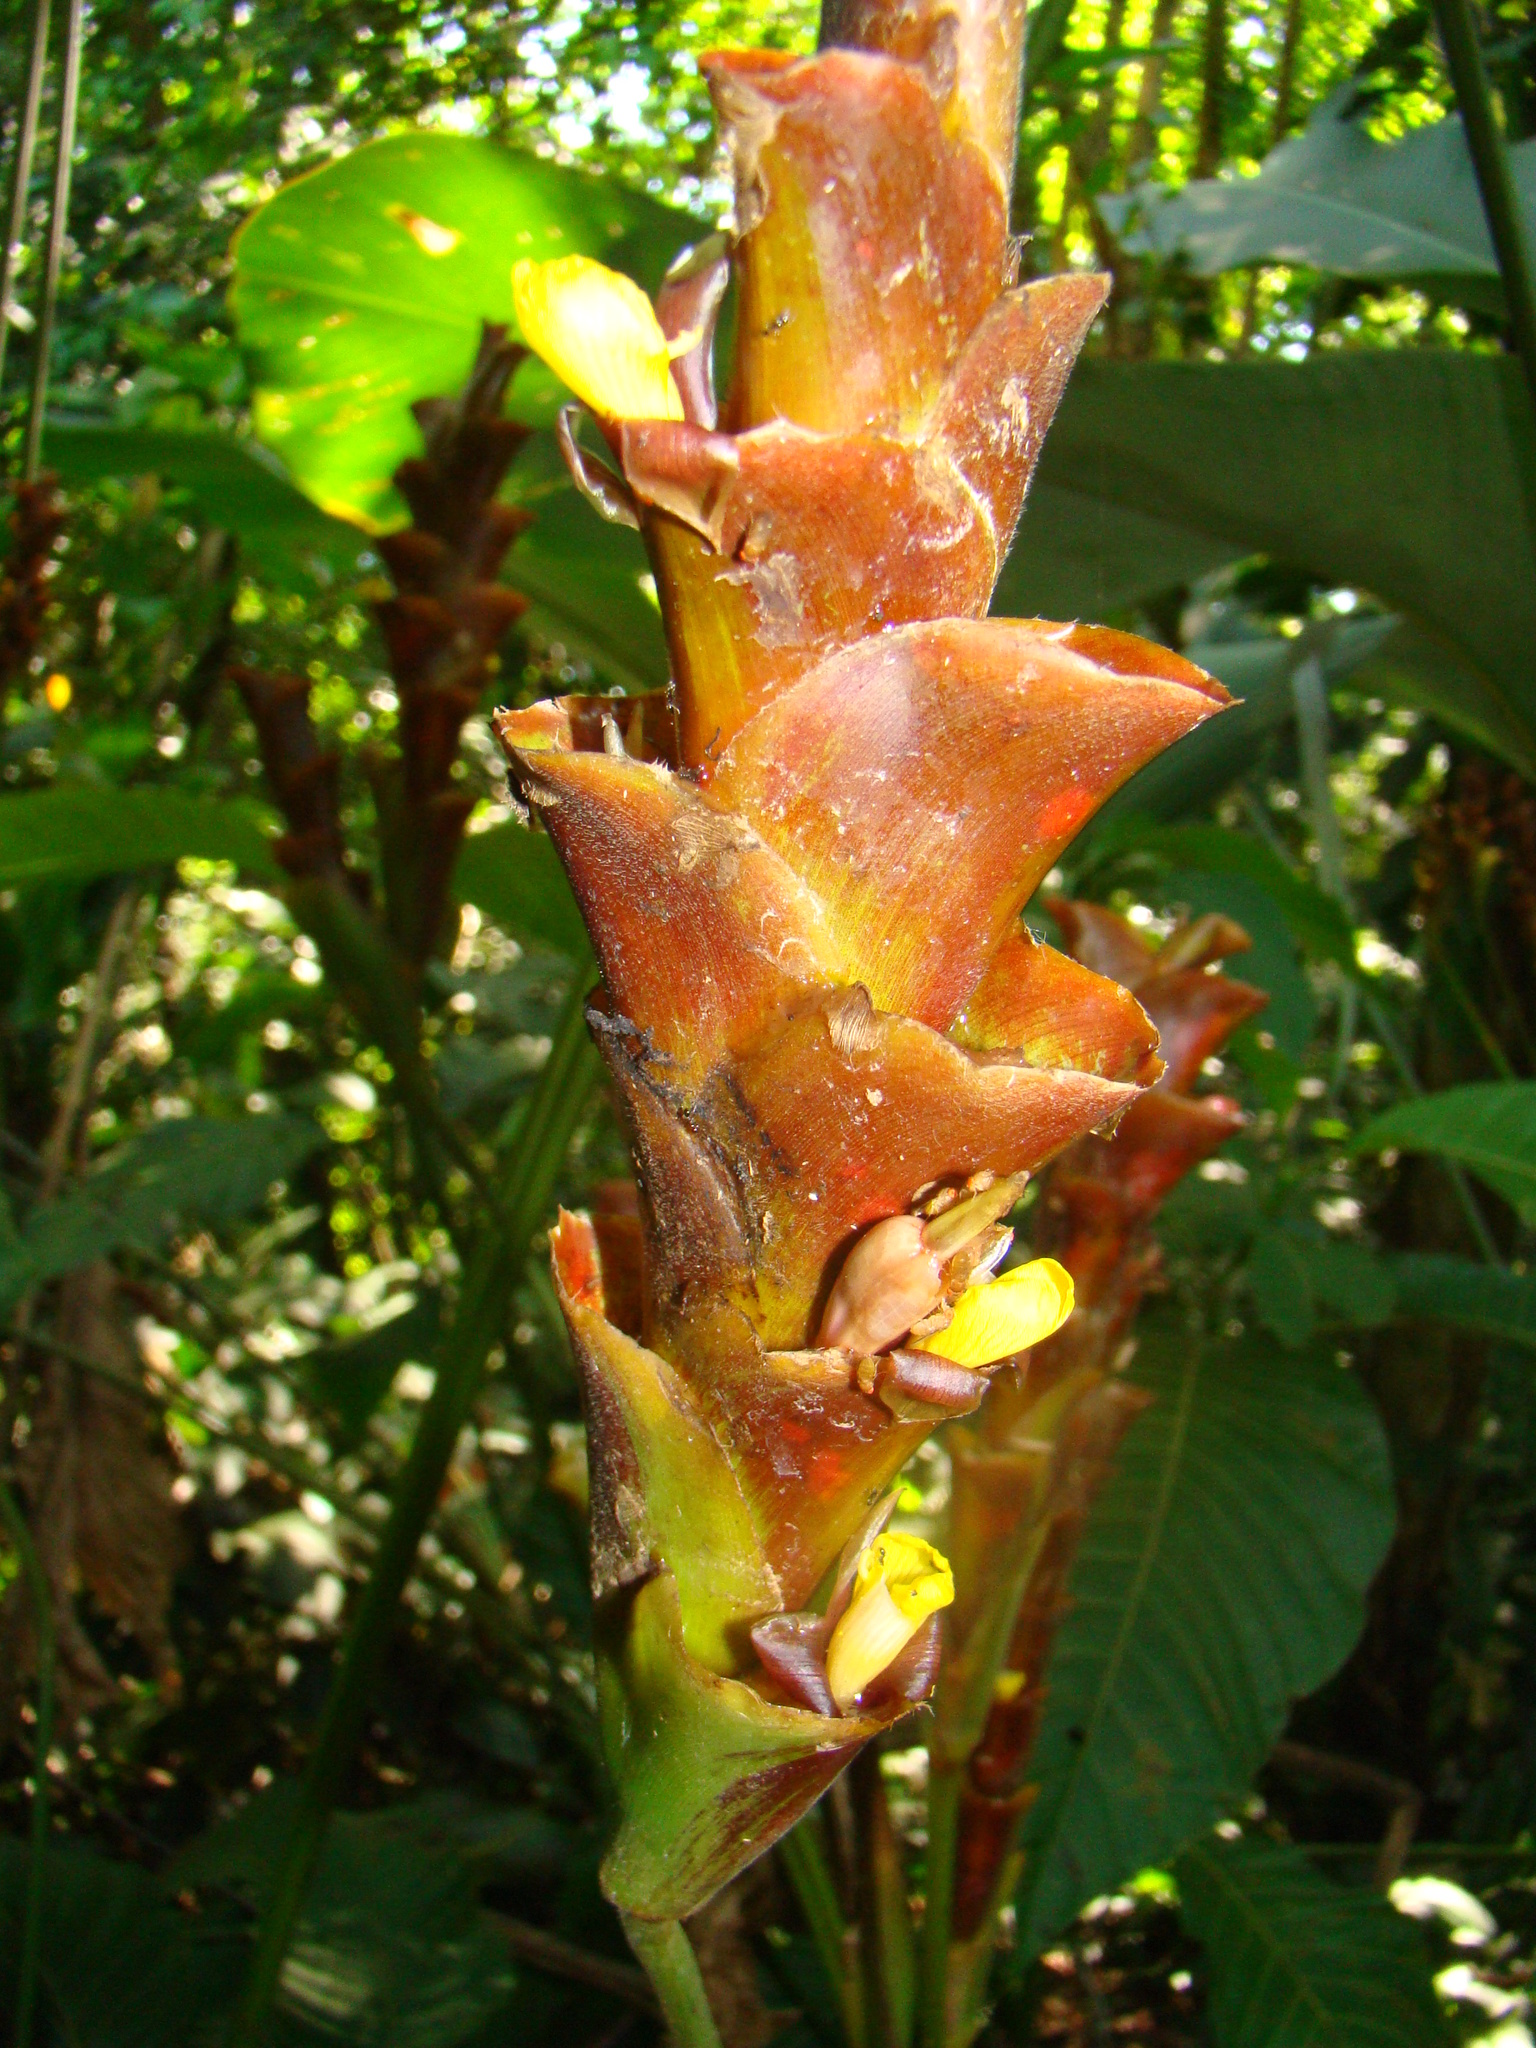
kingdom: Plantae
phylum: Tracheophyta
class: Liliopsida
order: Zingiberales
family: Marantaceae
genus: Calathea
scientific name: Calathea lutea
